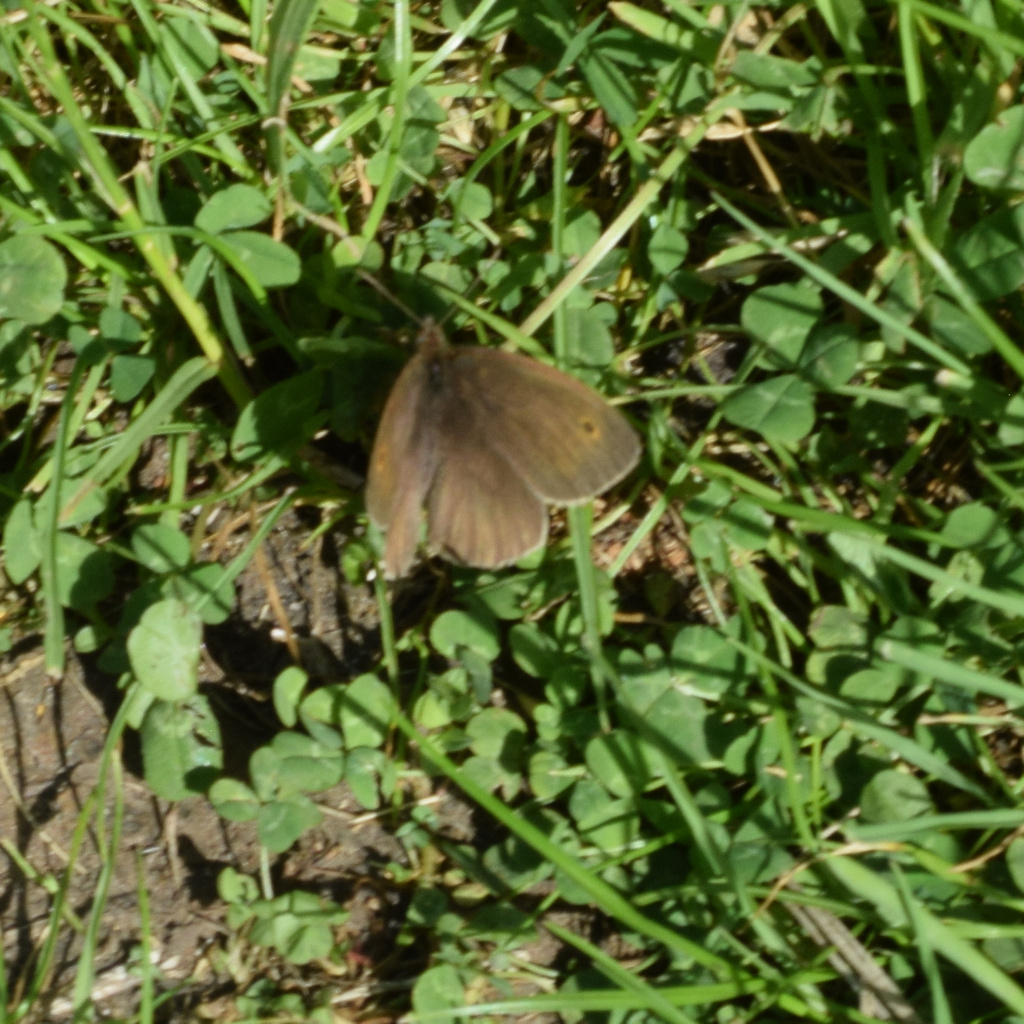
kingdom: Animalia
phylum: Arthropoda
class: Insecta
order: Lepidoptera
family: Nymphalidae
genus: Maniola
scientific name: Maniola jurtina
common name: Meadow brown
